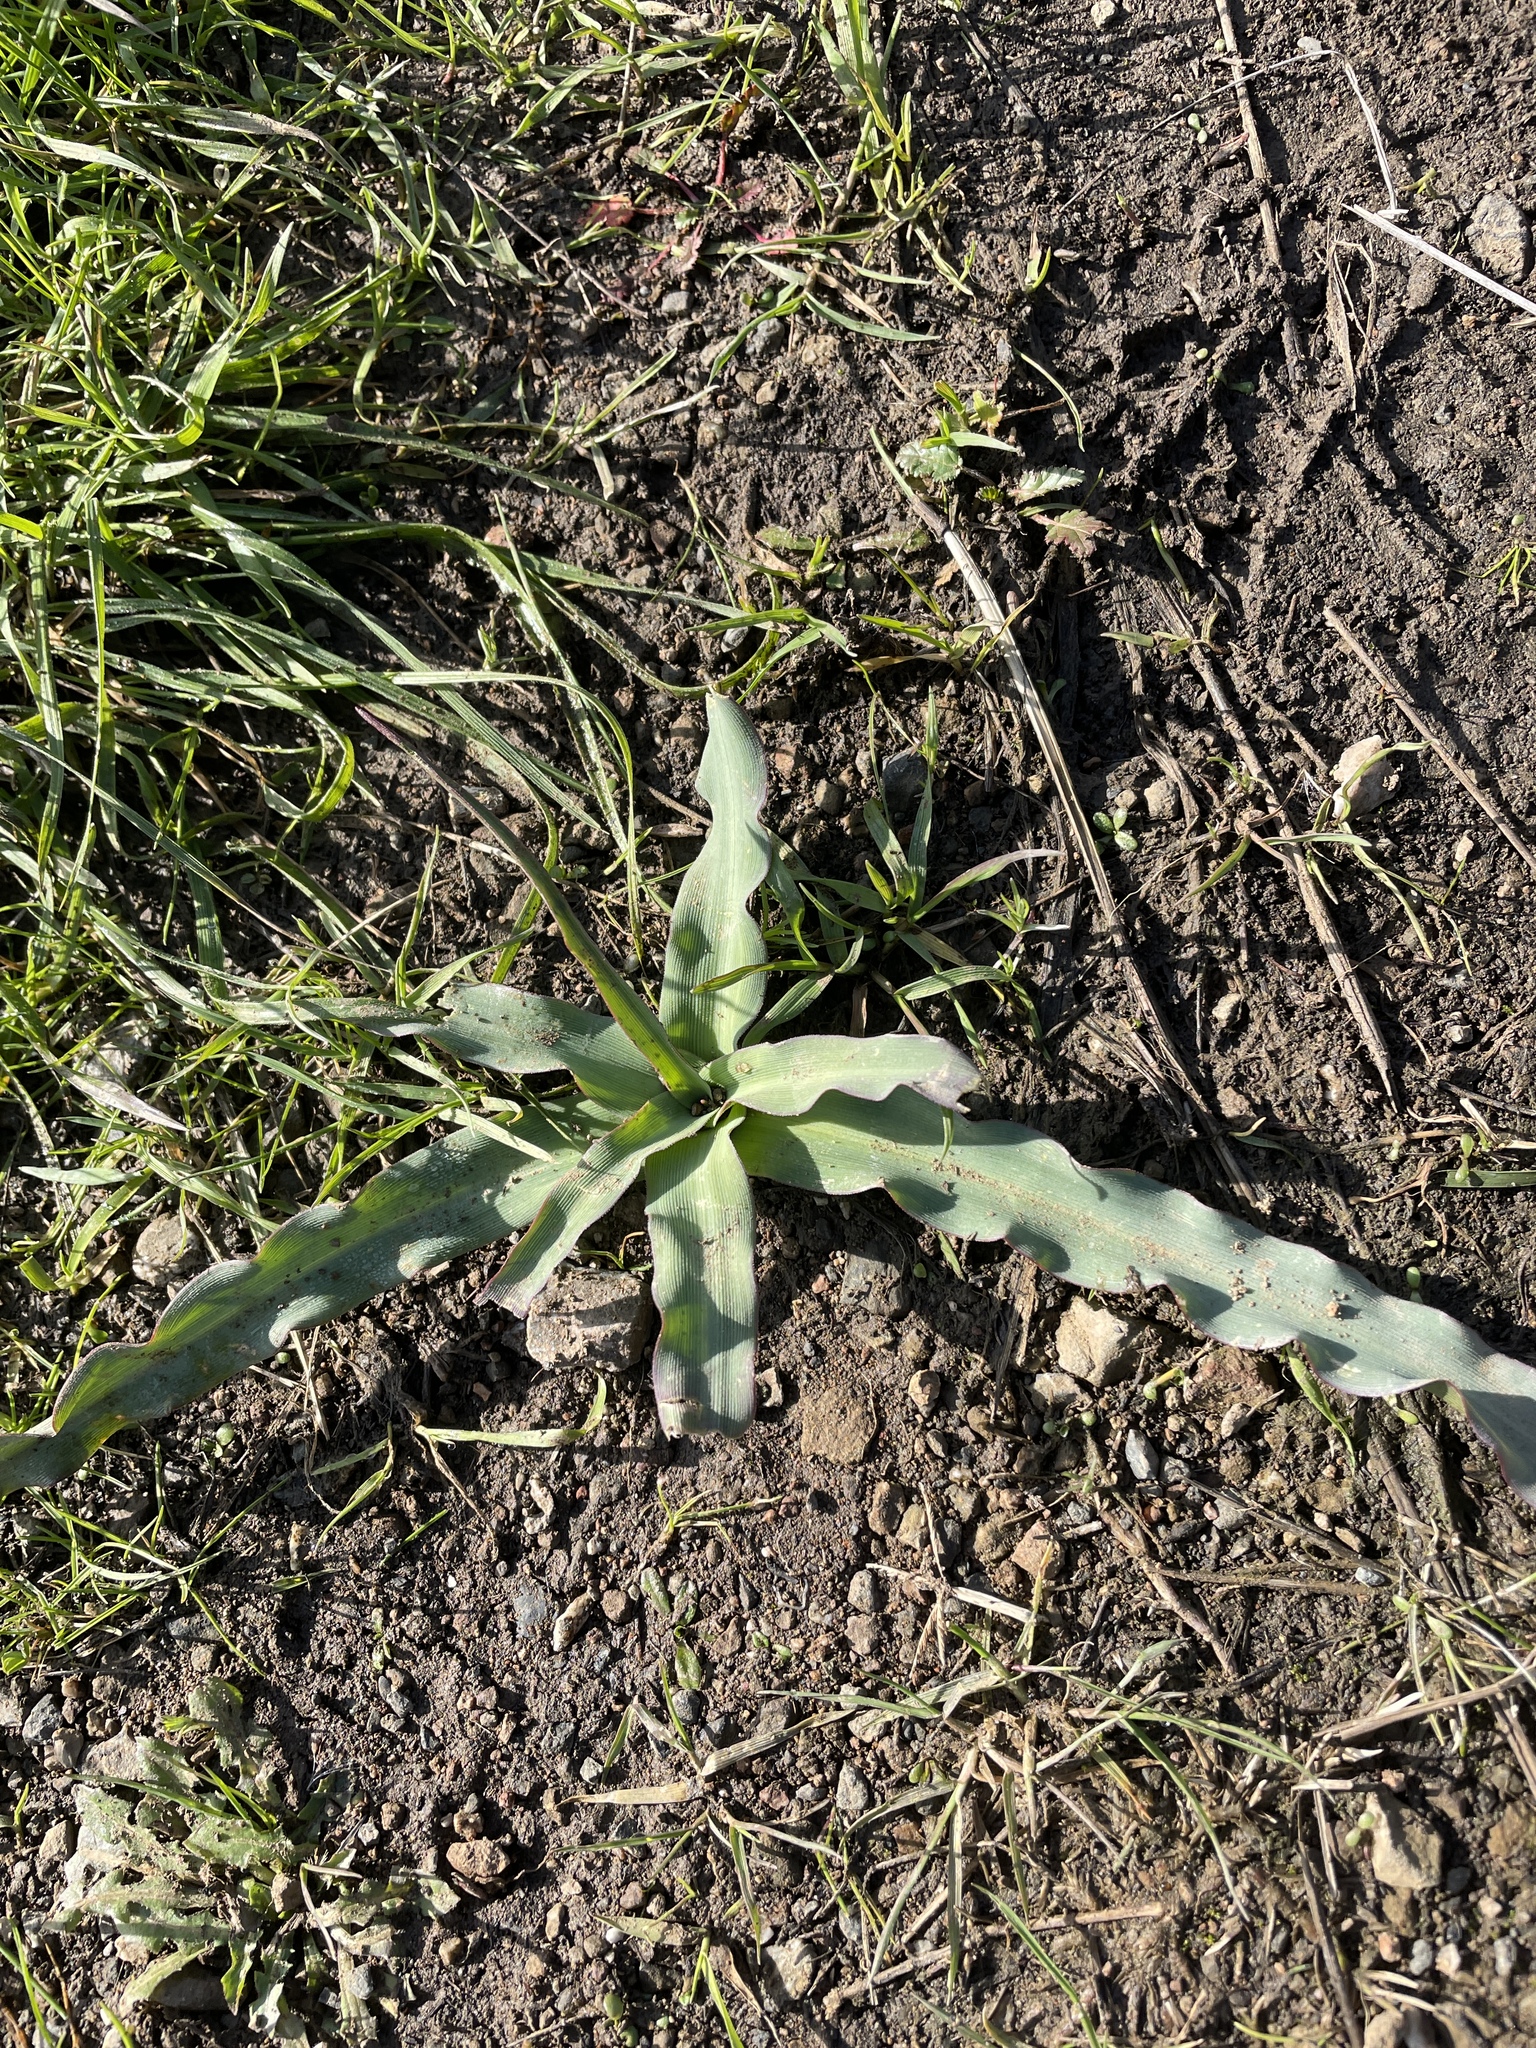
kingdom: Plantae
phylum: Tracheophyta
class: Liliopsida
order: Asparagales
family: Asparagaceae
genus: Chlorogalum
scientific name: Chlorogalum pomeridianum
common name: Amole
